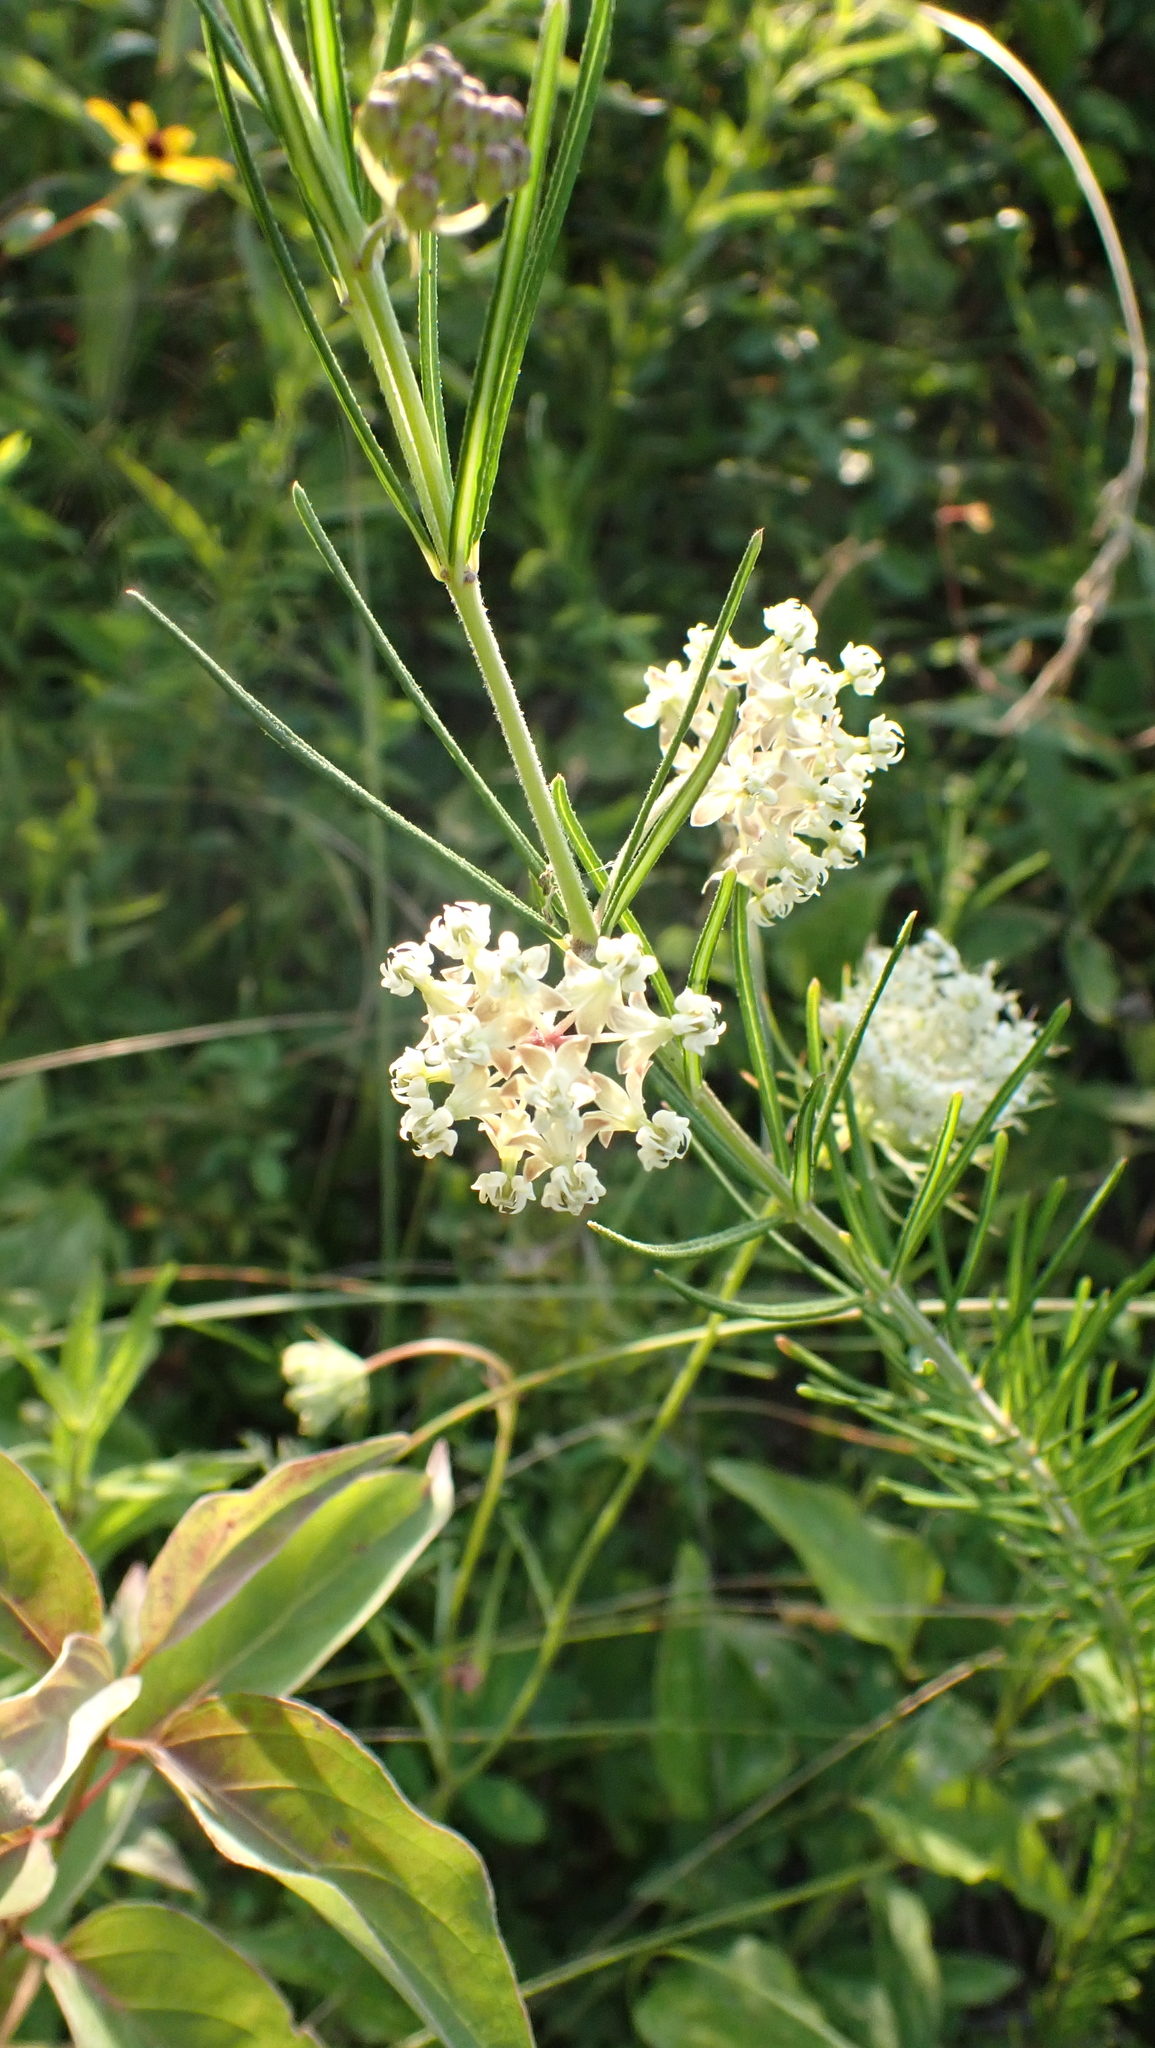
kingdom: Plantae
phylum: Tracheophyta
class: Magnoliopsida
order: Gentianales
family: Apocynaceae
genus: Asclepias
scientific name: Asclepias verticillata
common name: Eastern whorled milkweed
